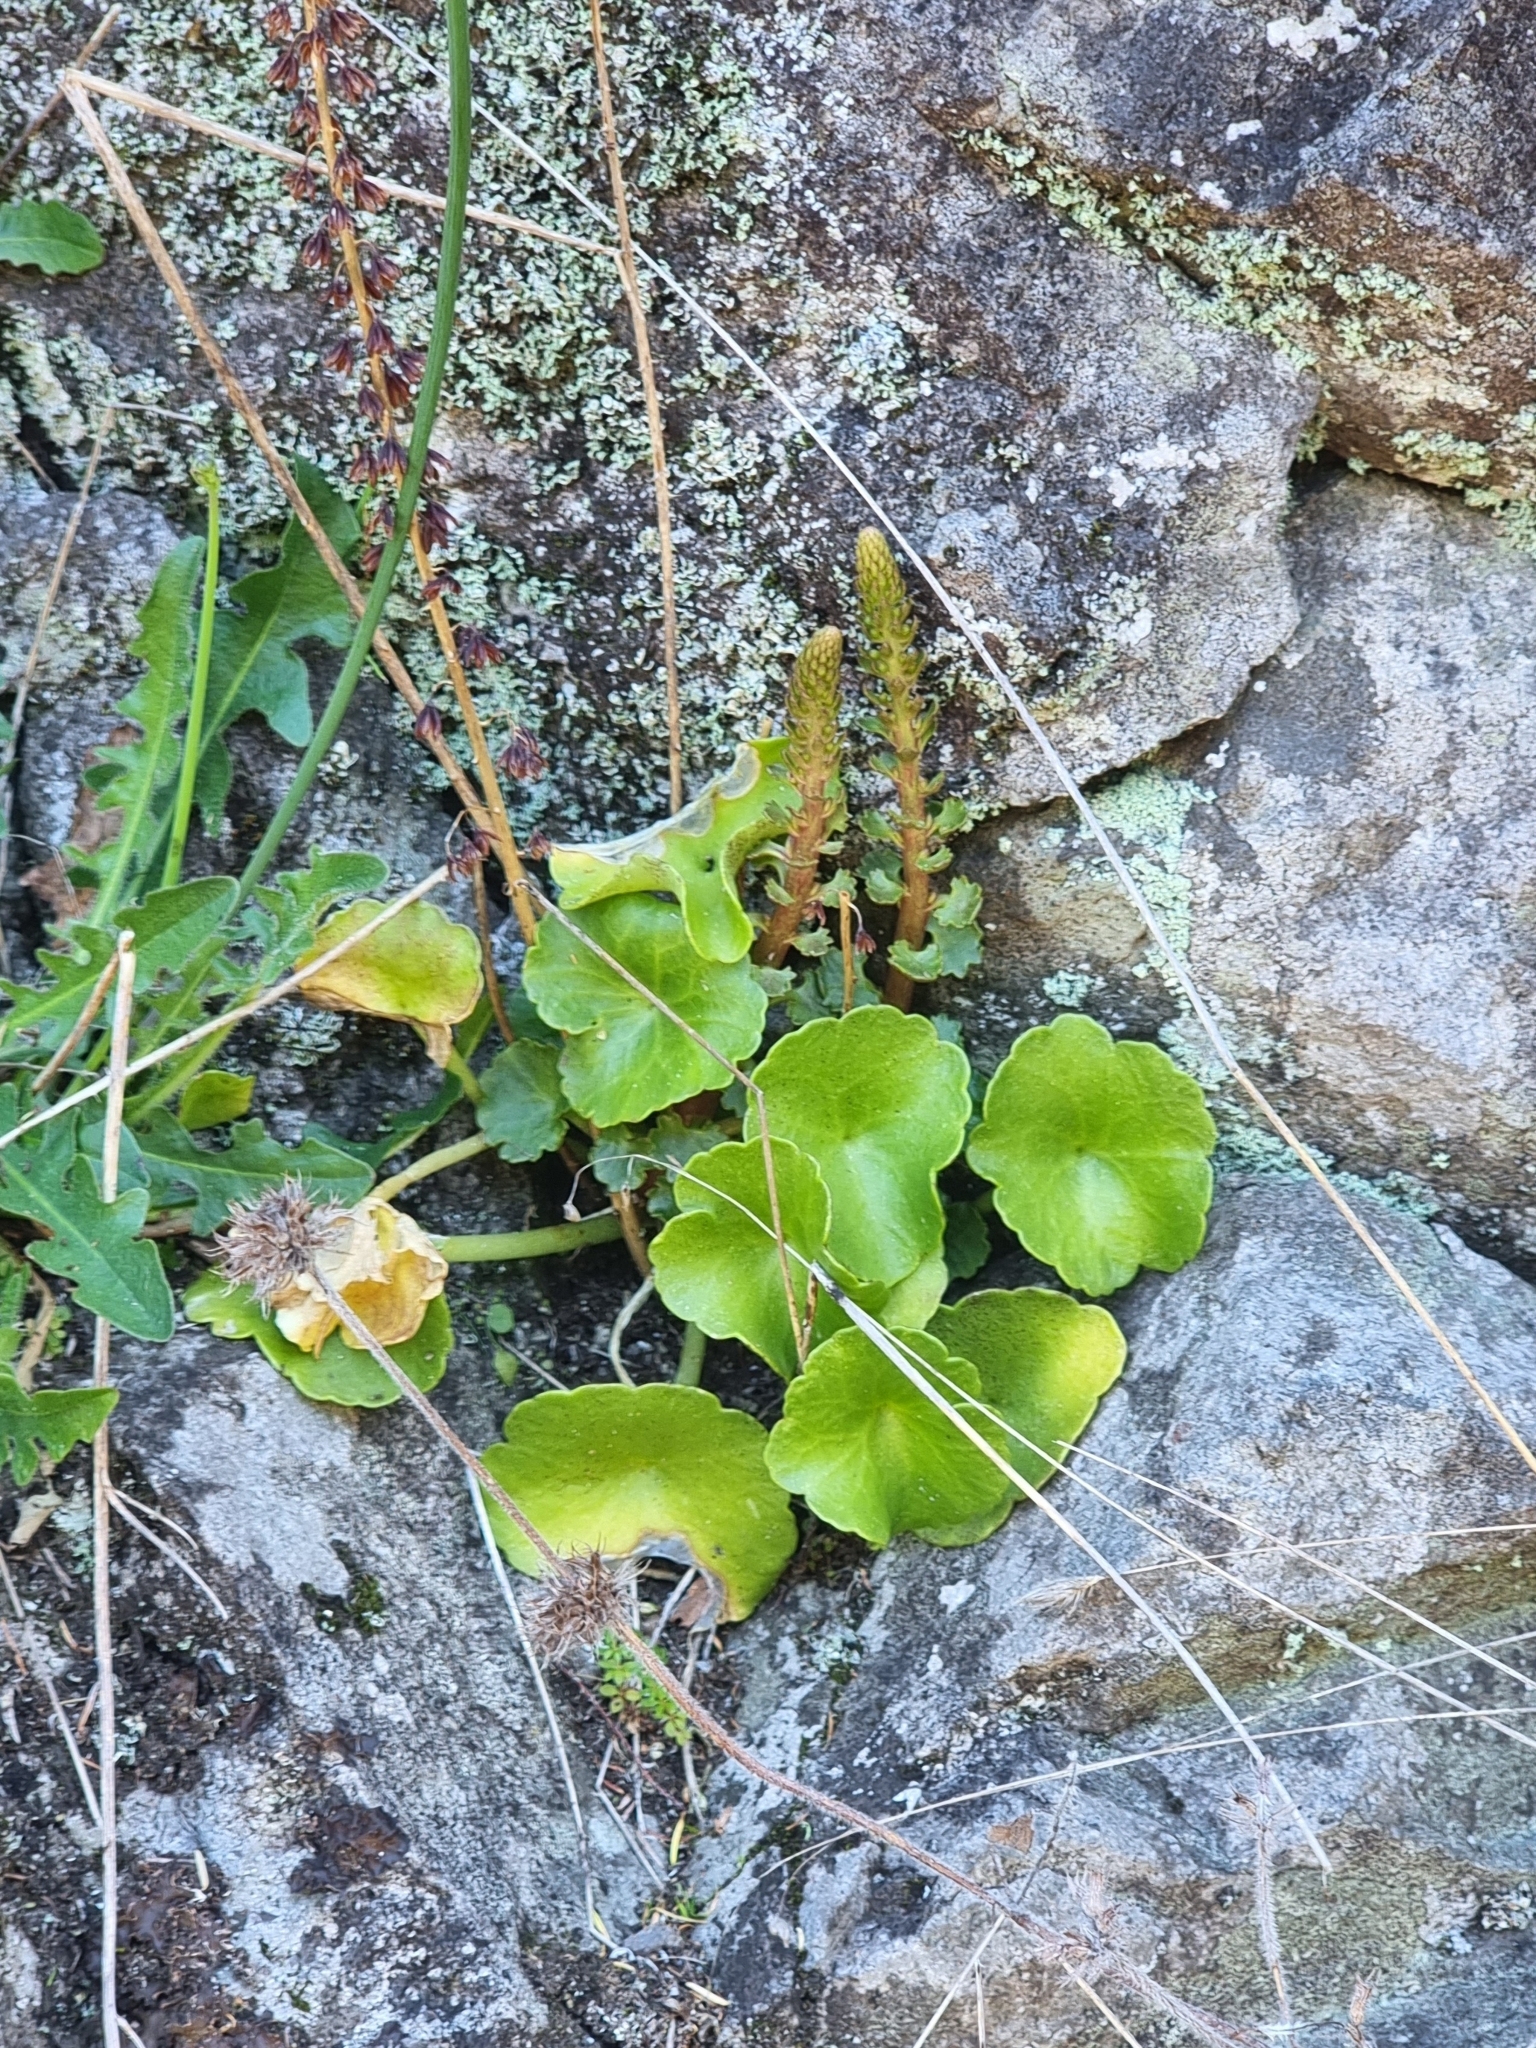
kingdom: Plantae
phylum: Tracheophyta
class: Magnoliopsida
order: Saxifragales
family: Crassulaceae
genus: Umbilicus
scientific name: Umbilicus rupestris
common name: Navelwort
